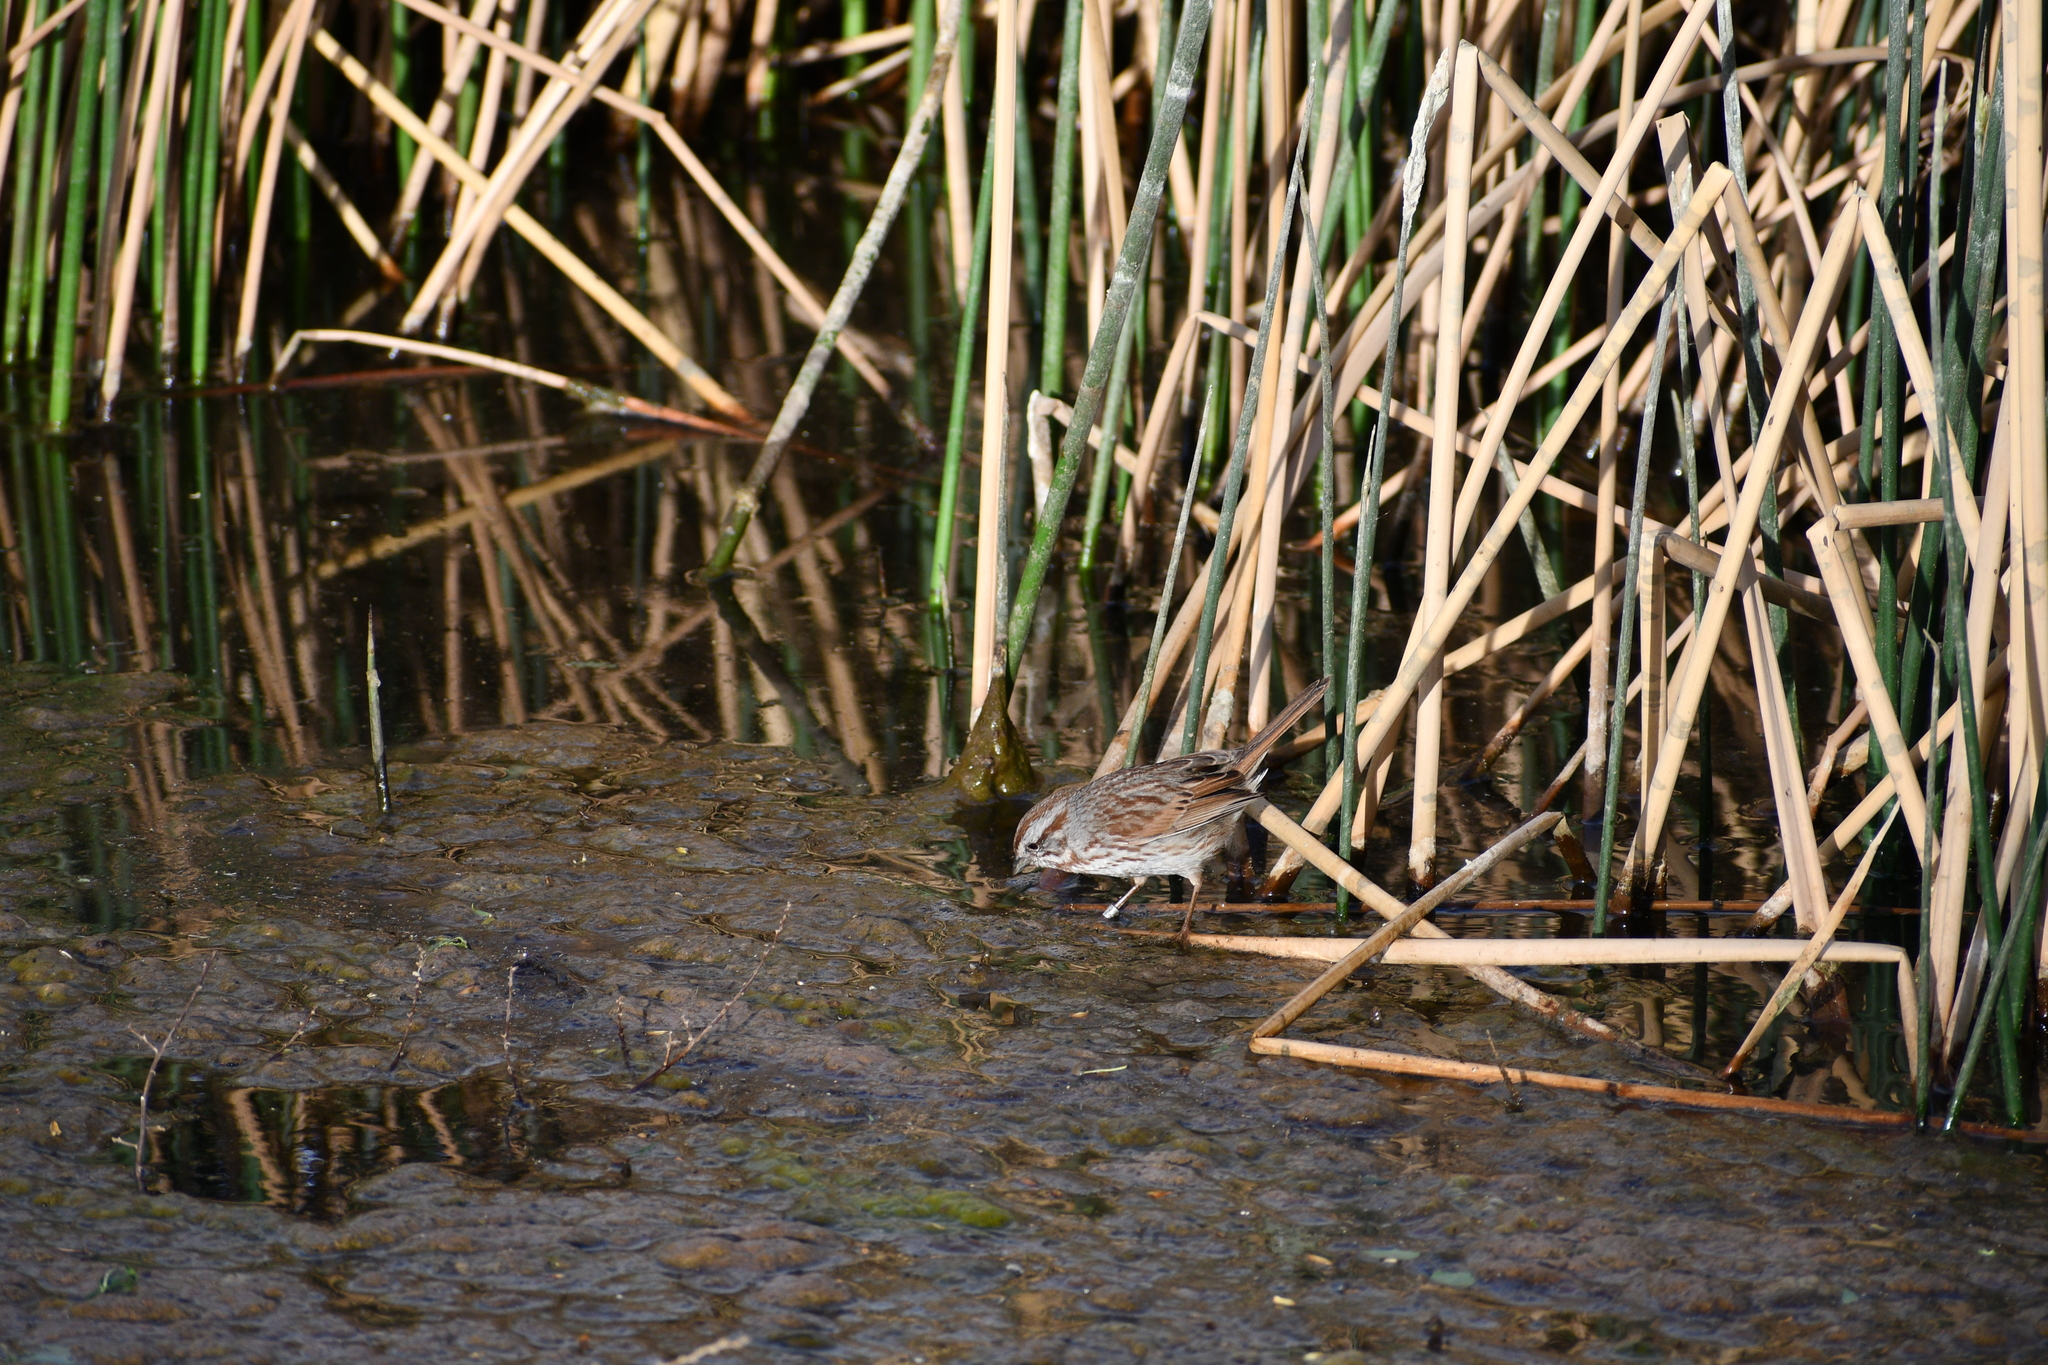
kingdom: Animalia
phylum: Chordata
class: Aves
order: Passeriformes
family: Passerellidae
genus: Melospiza
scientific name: Melospiza melodia
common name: Song sparrow
